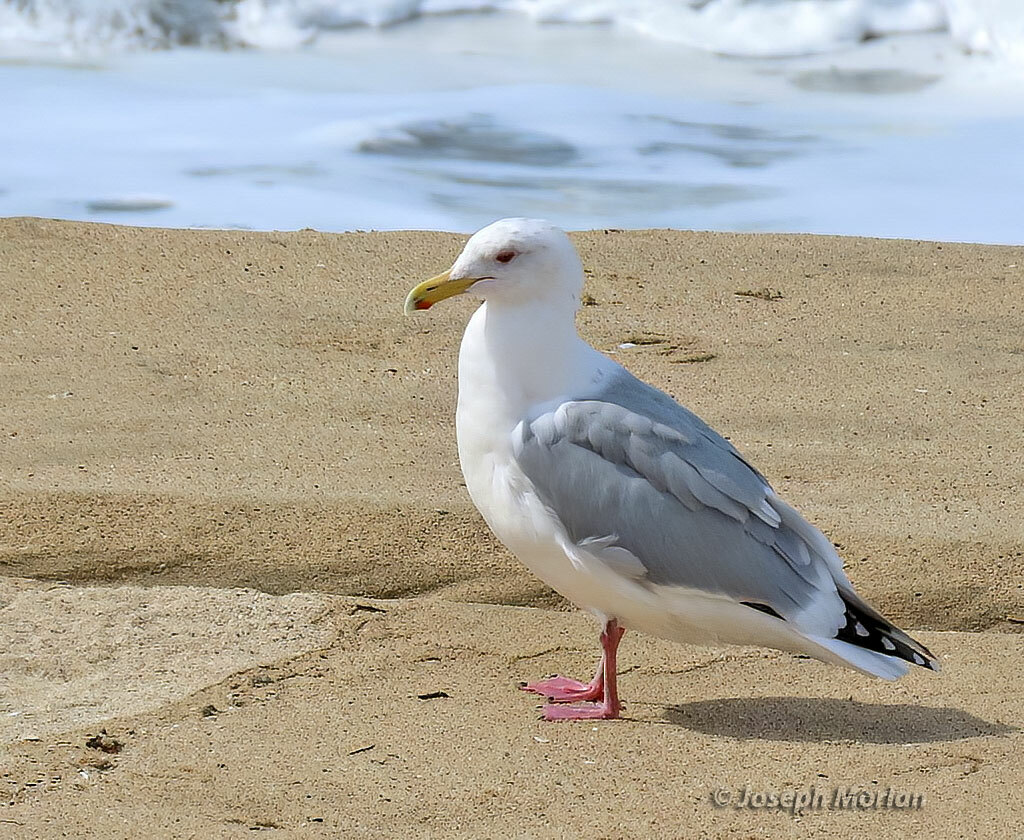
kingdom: Animalia
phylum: Chordata
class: Aves
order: Charadriiformes
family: Laridae
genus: Larus
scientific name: Larus argentatus
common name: Herring gull
